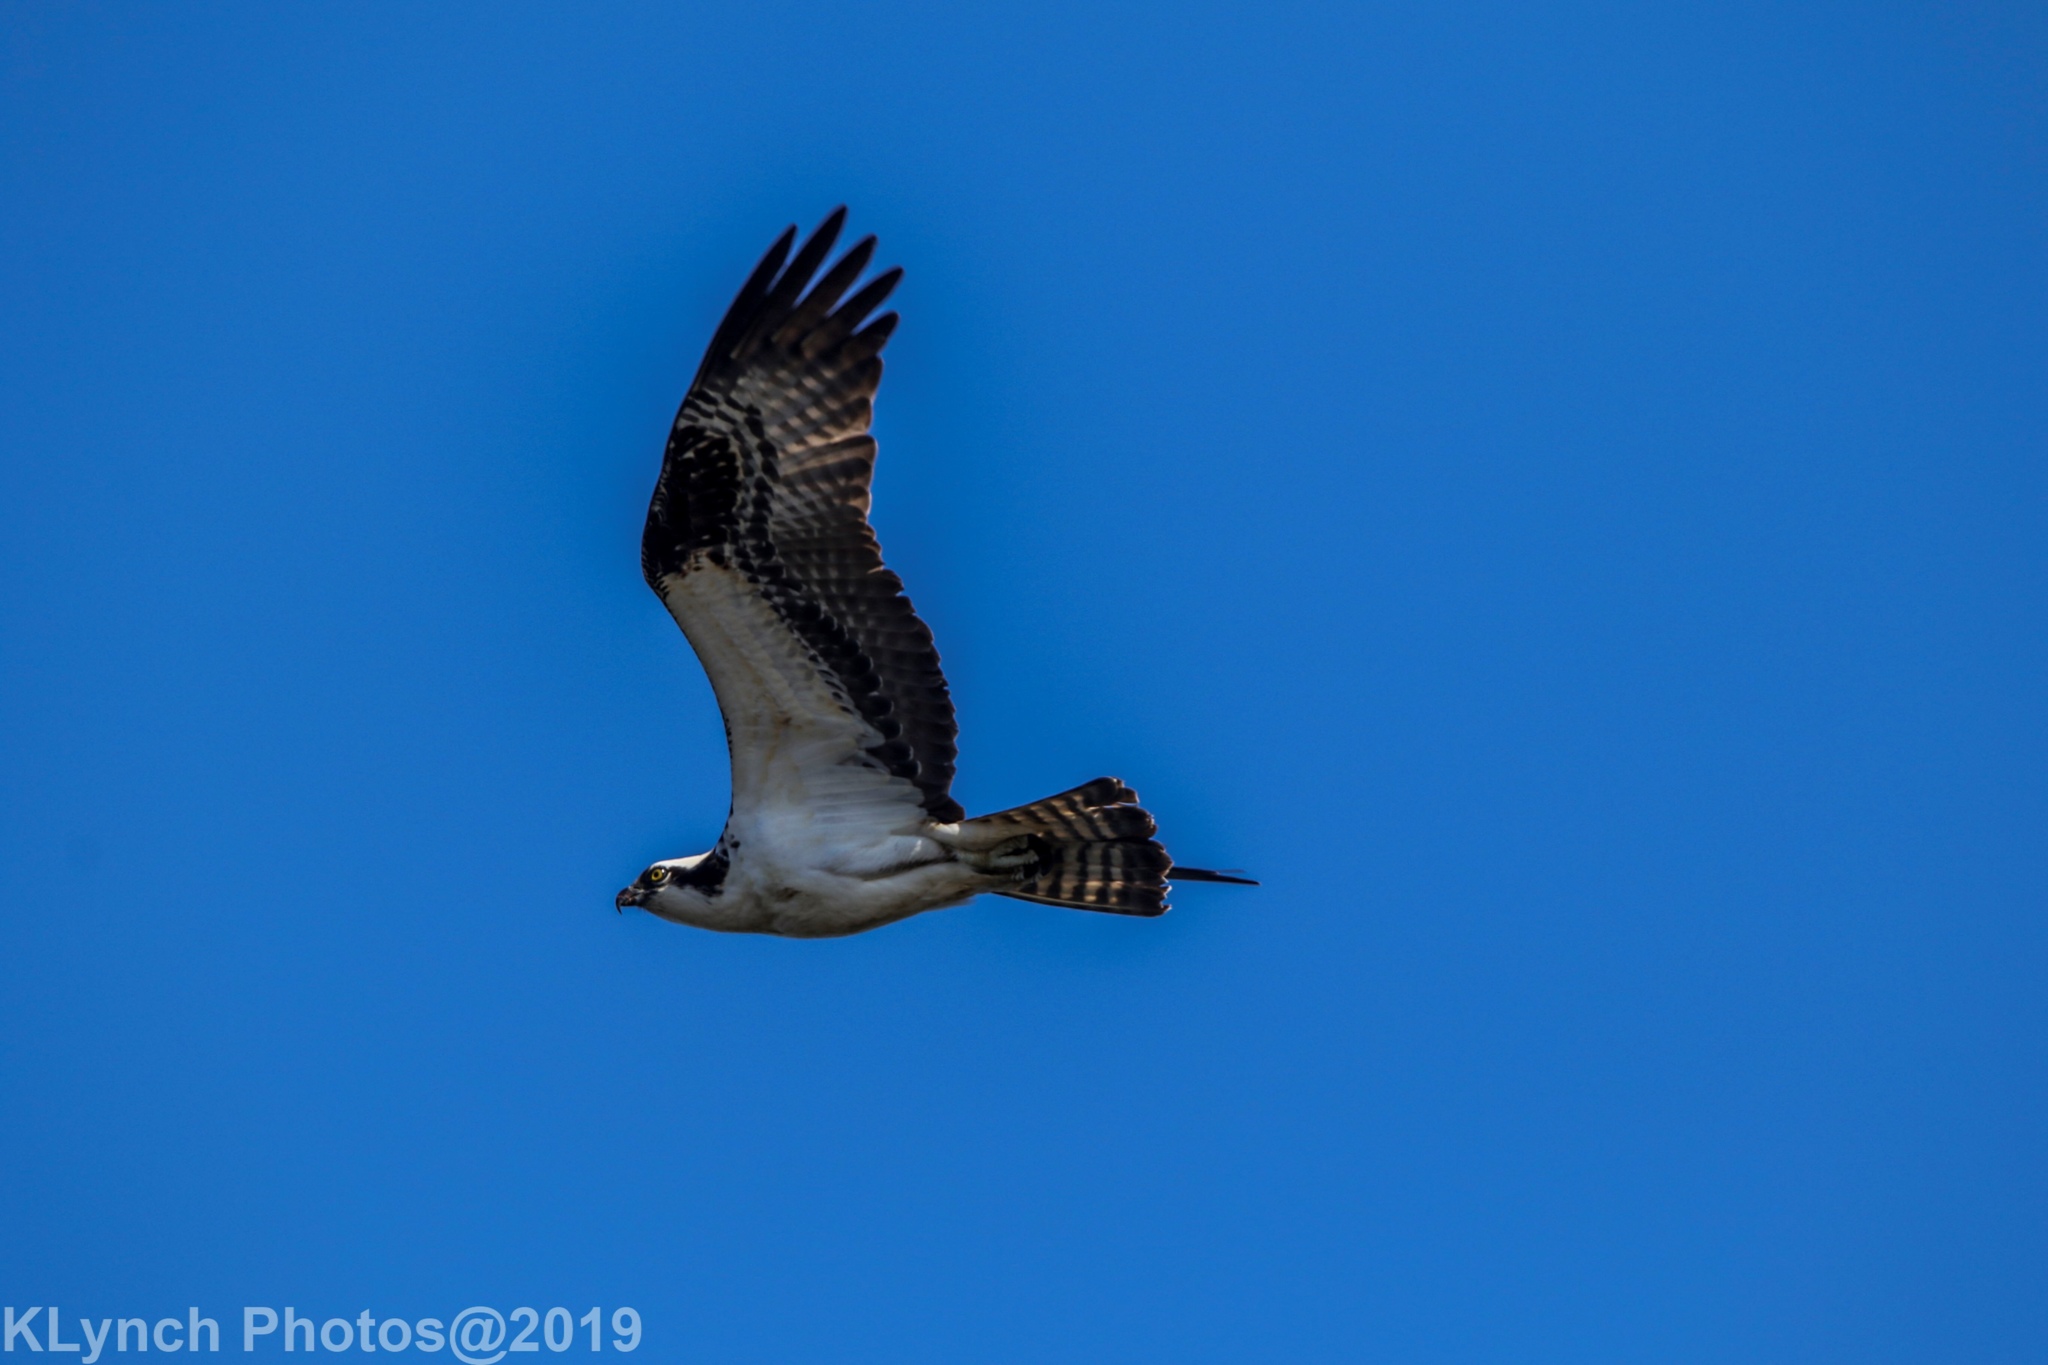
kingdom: Animalia
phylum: Chordata
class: Aves
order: Accipitriformes
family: Pandionidae
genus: Pandion
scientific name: Pandion haliaetus
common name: Osprey
